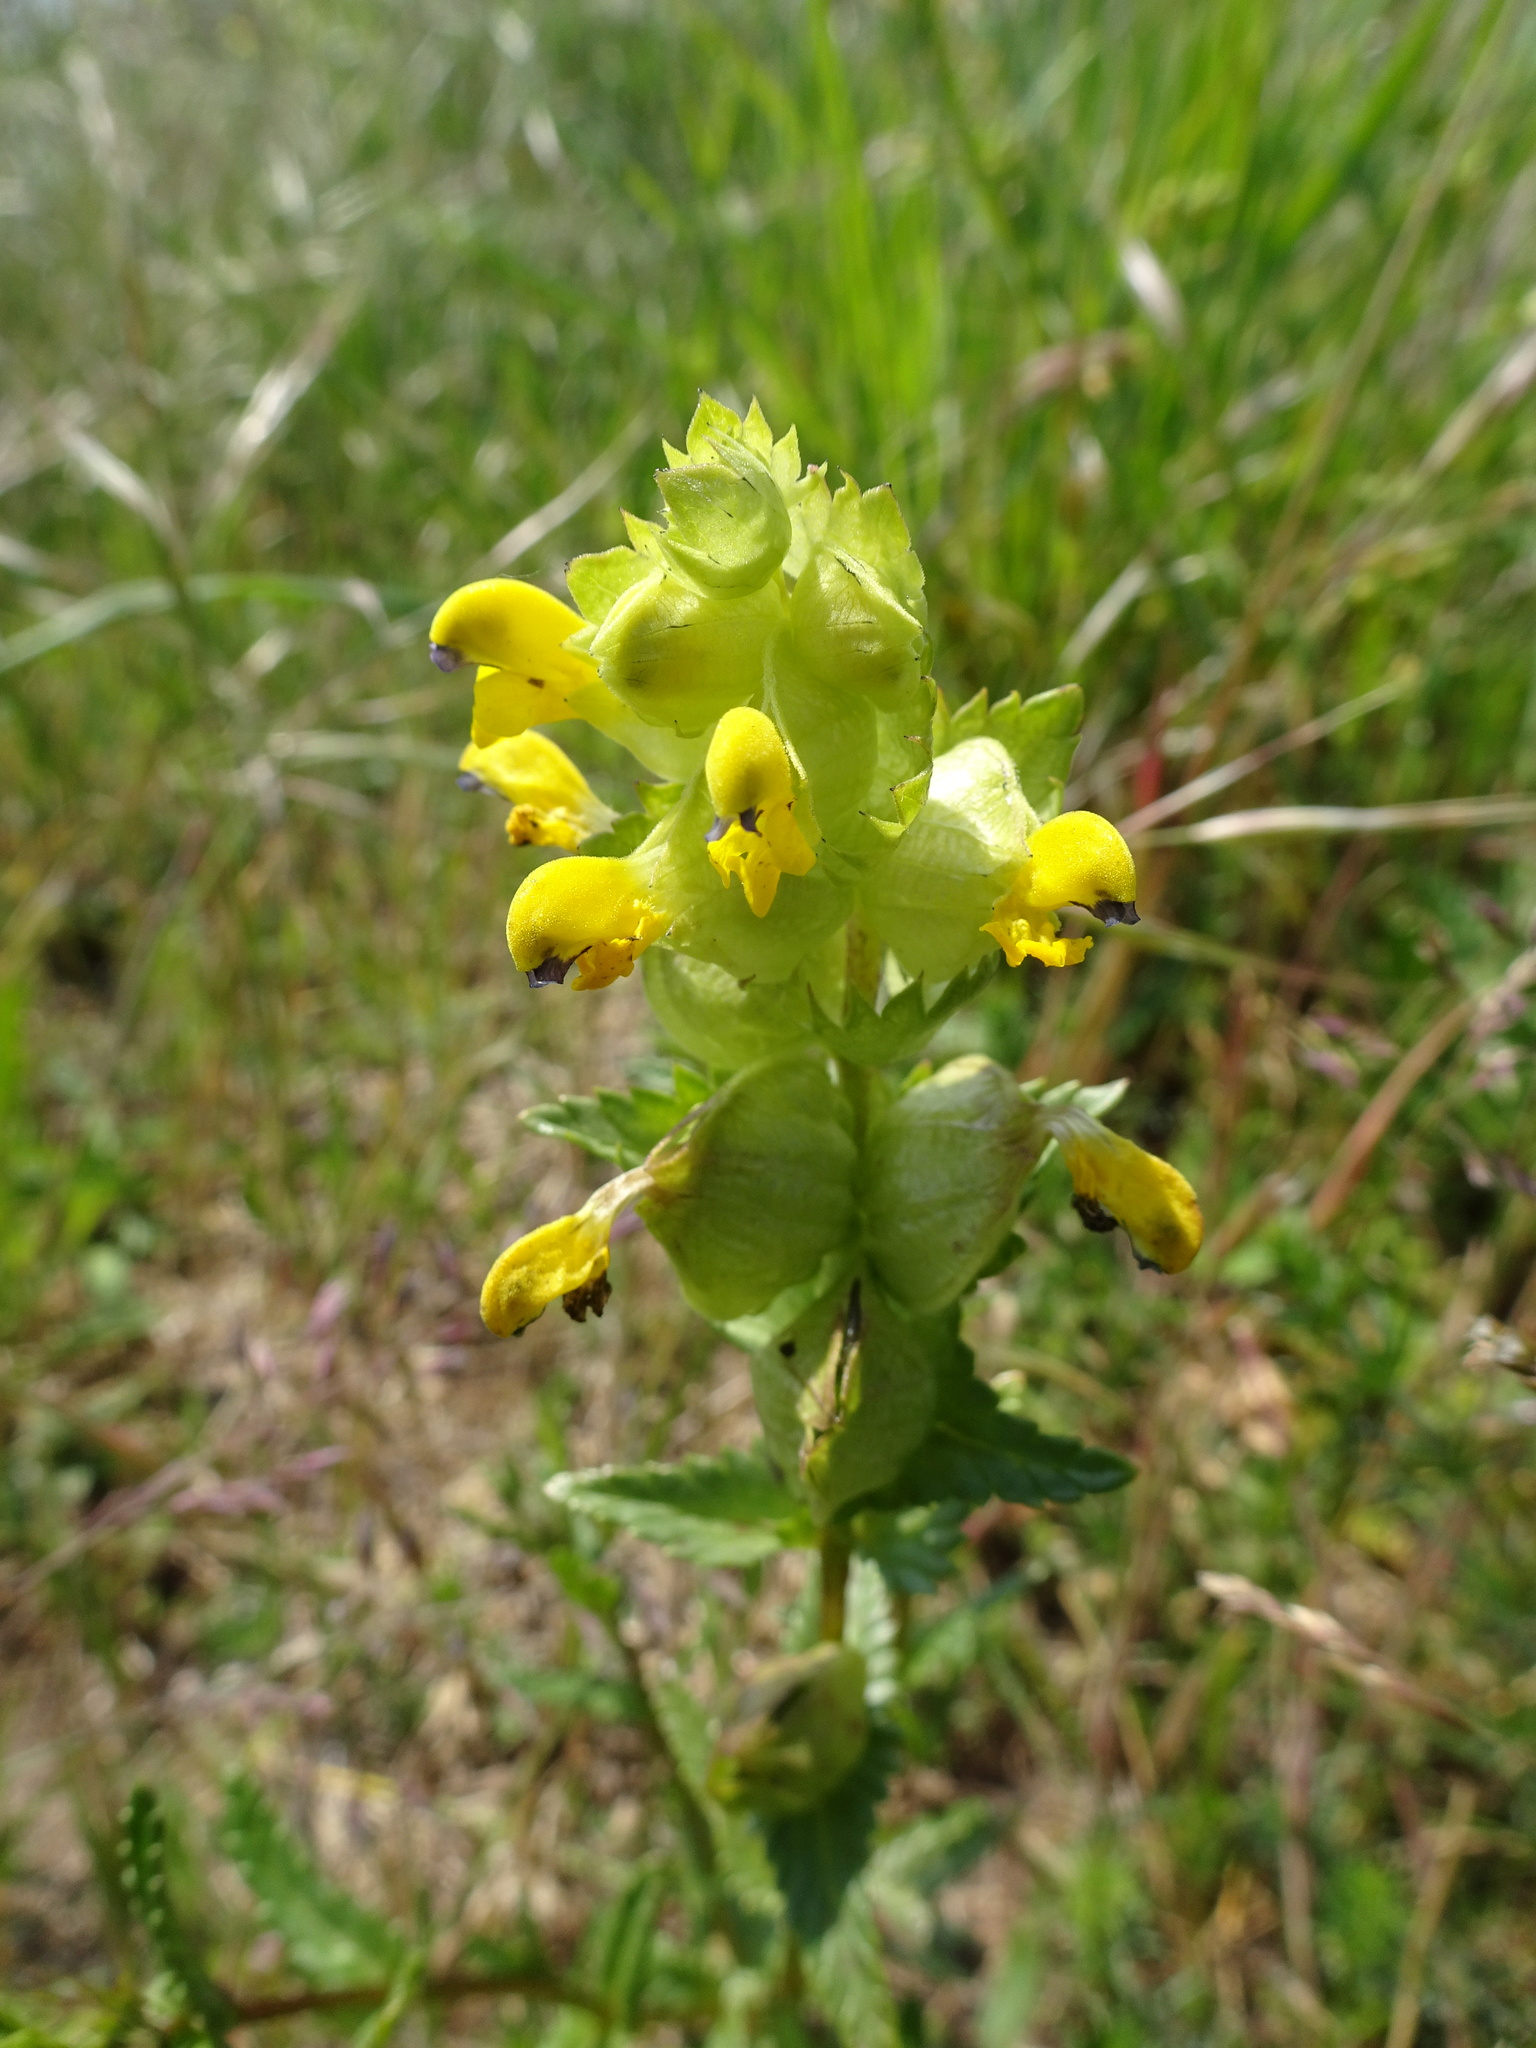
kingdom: Plantae
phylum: Tracheophyta
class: Magnoliopsida
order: Lamiales
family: Orobanchaceae
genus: Rhinanthus
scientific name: Rhinanthus minor
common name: Yellow-rattle
